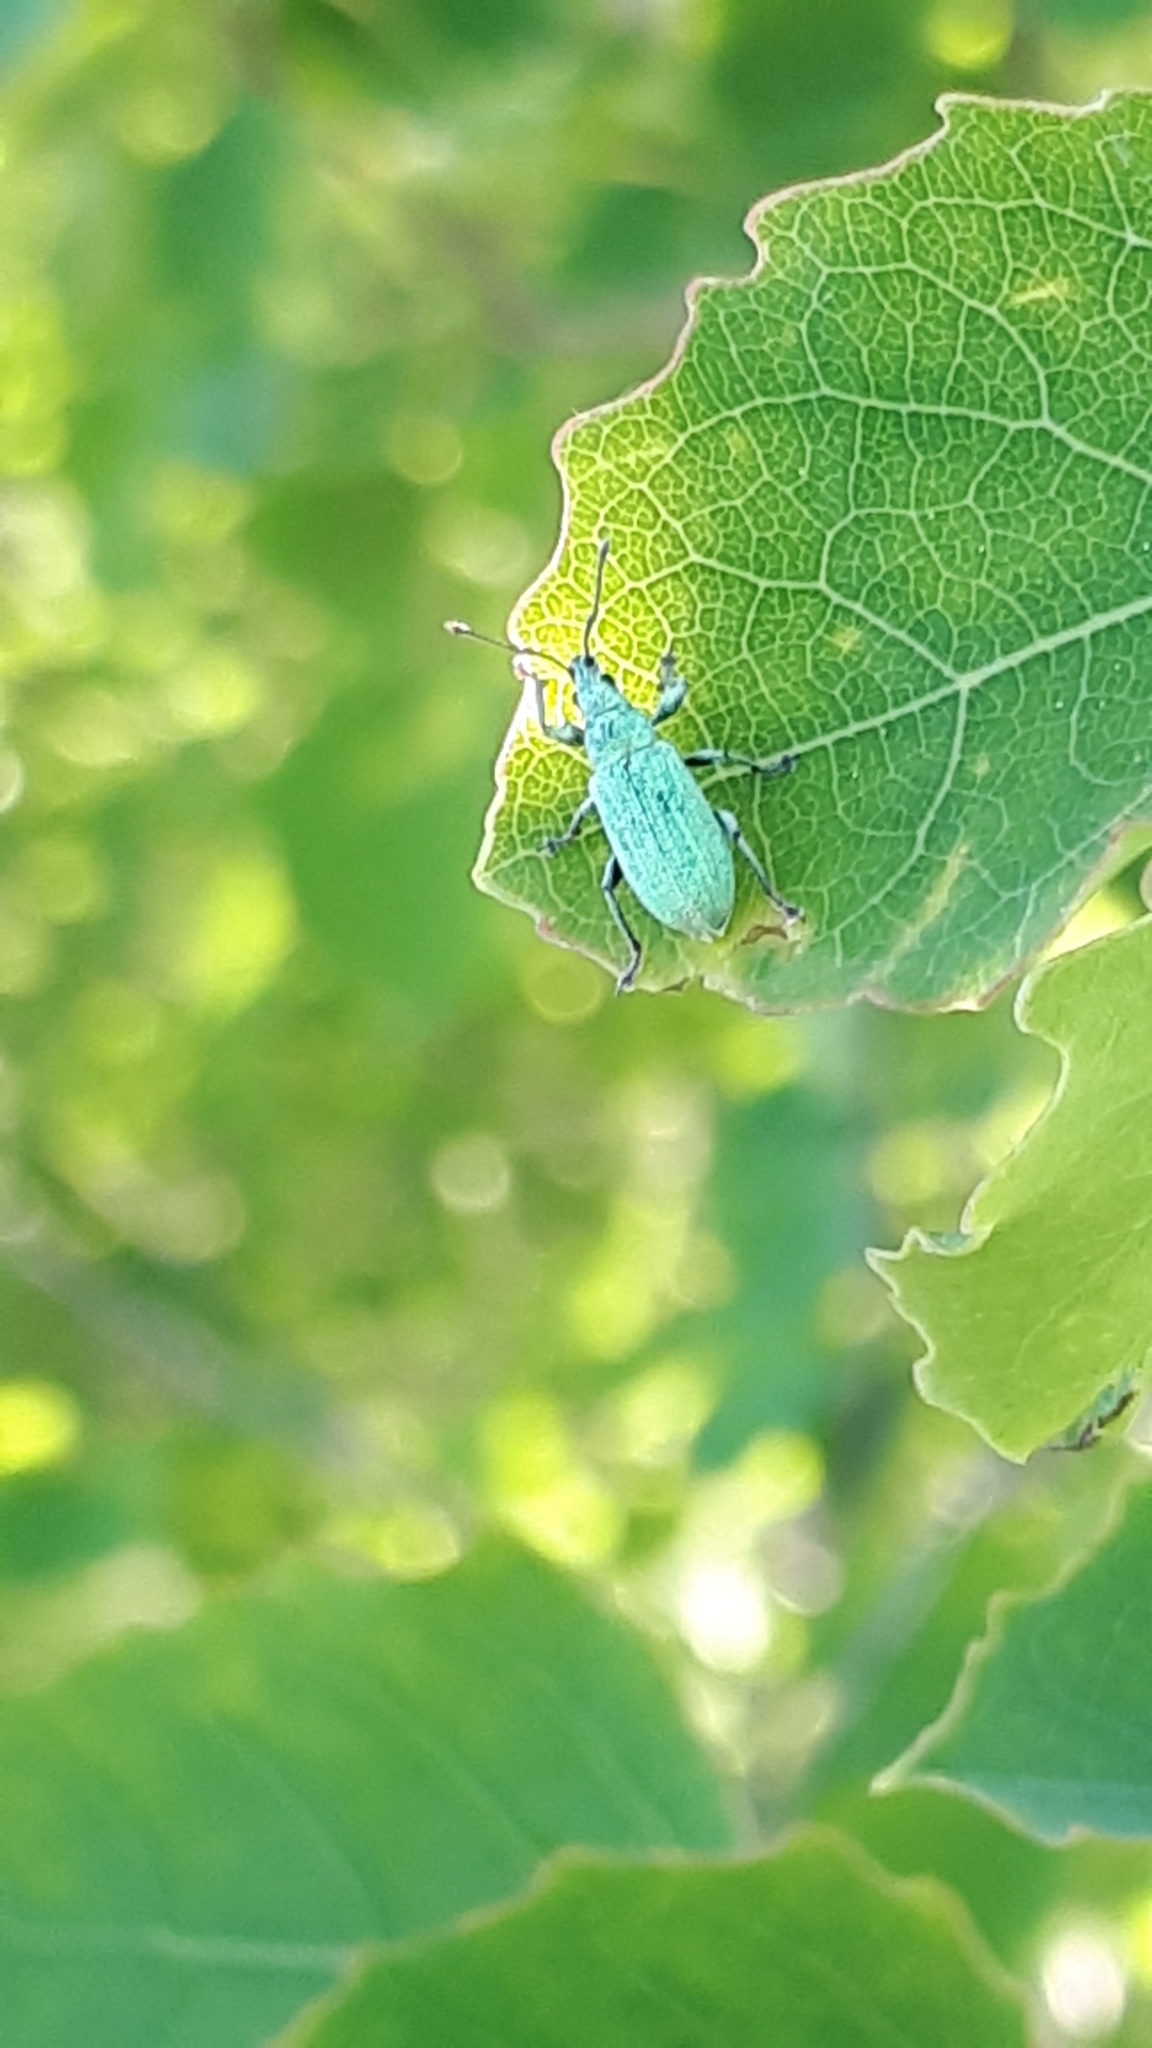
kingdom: Animalia
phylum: Arthropoda
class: Insecta
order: Coleoptera
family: Curculionidae
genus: Phyllobius
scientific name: Phyllobius maculicornis
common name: Green leaf weevil
